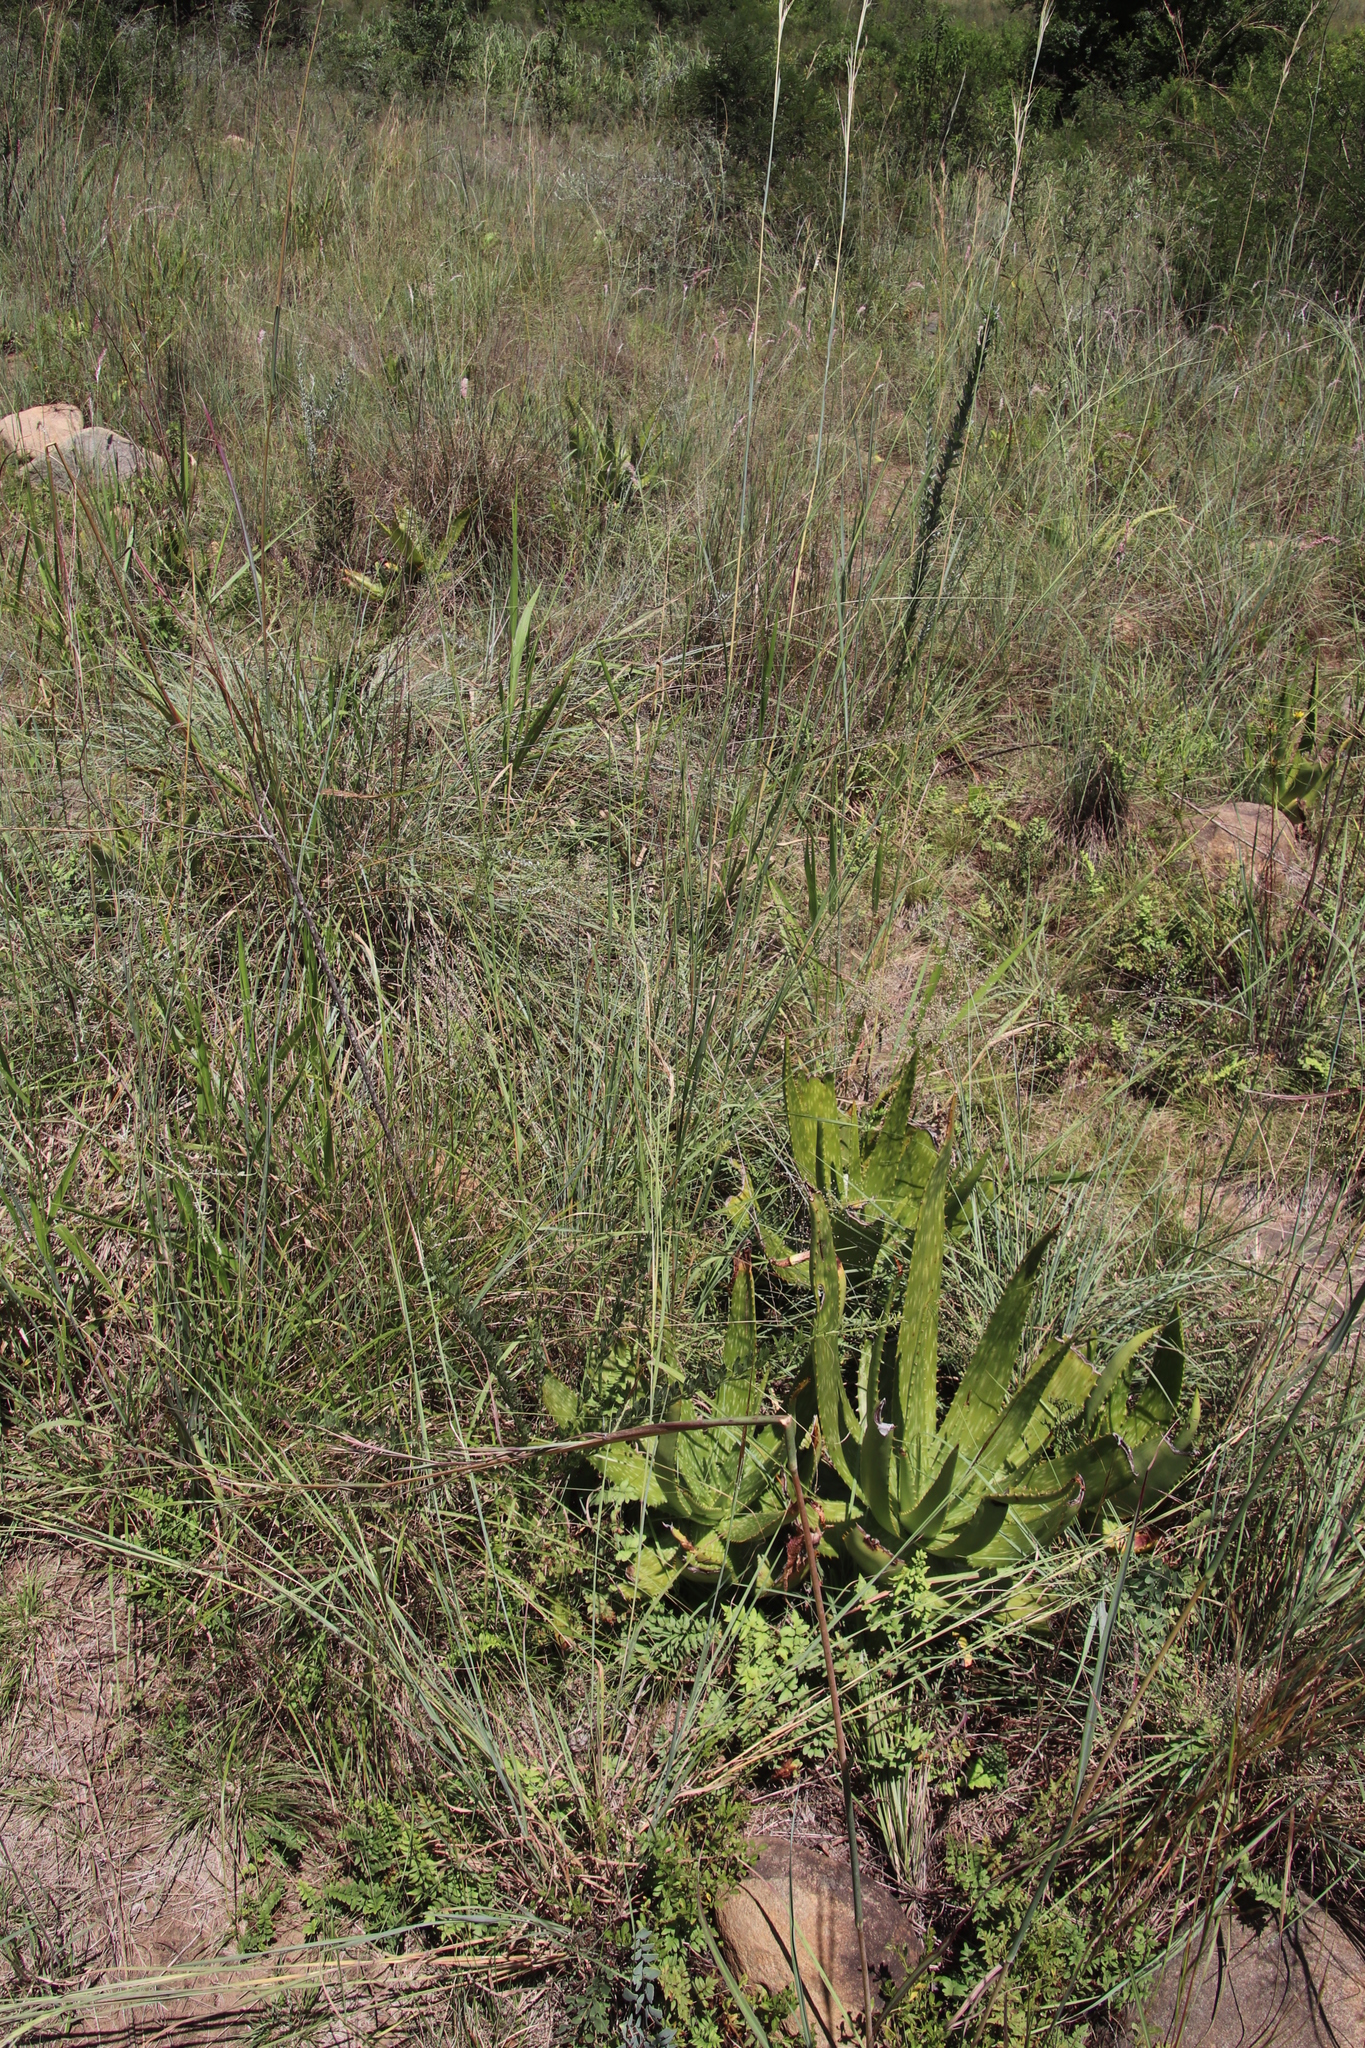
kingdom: Plantae
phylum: Tracheophyta
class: Liliopsida
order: Asparagales
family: Asphodelaceae
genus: Aloe
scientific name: Aloe parvibracteata
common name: Lowveld spotted aloe
